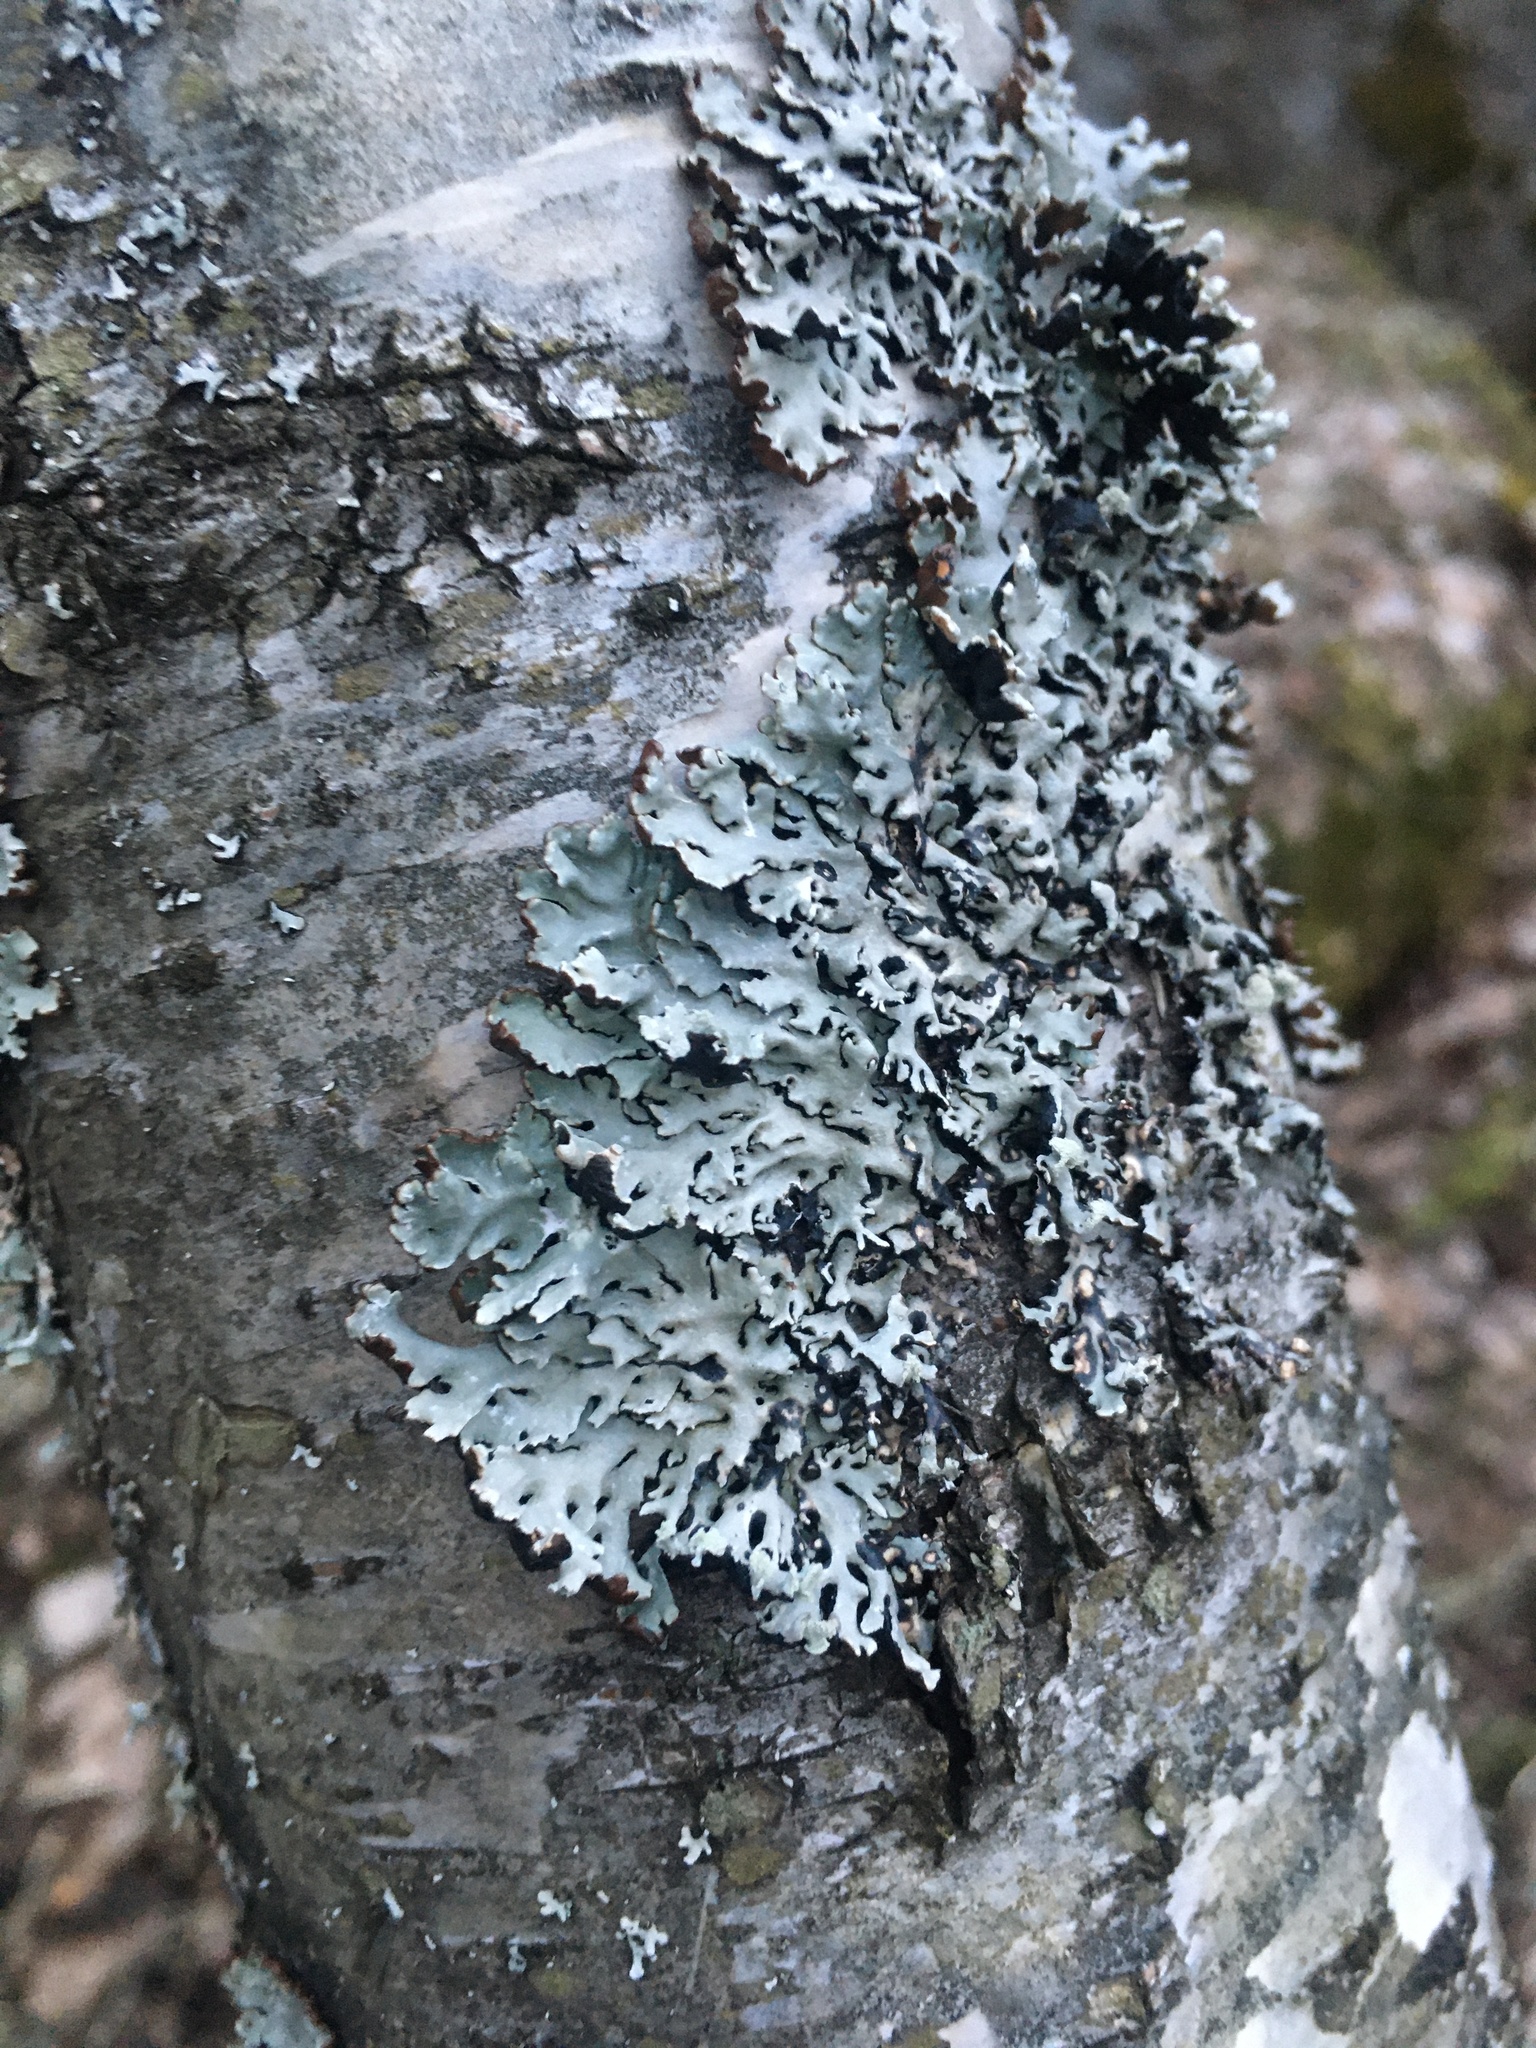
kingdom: Fungi
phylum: Ascomycota
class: Lecanoromycetes
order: Lecanorales
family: Parmeliaceae
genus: Hypogymnia
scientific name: Hypogymnia physodes
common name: Dark crottle
